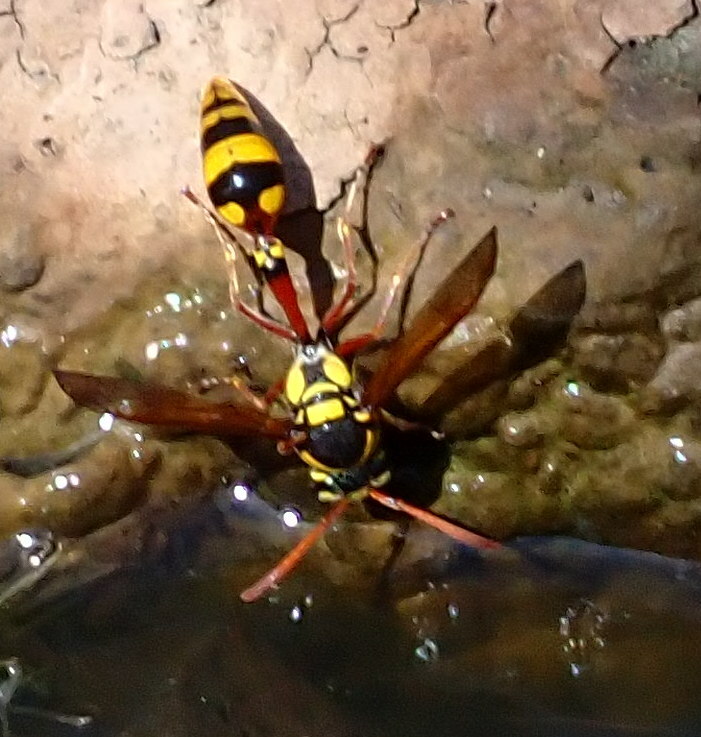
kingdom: Animalia
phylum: Arthropoda
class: Insecta
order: Hymenoptera
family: Eumenidae
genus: Delta
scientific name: Delta campaniforme
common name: Yellow and black potter wasp
